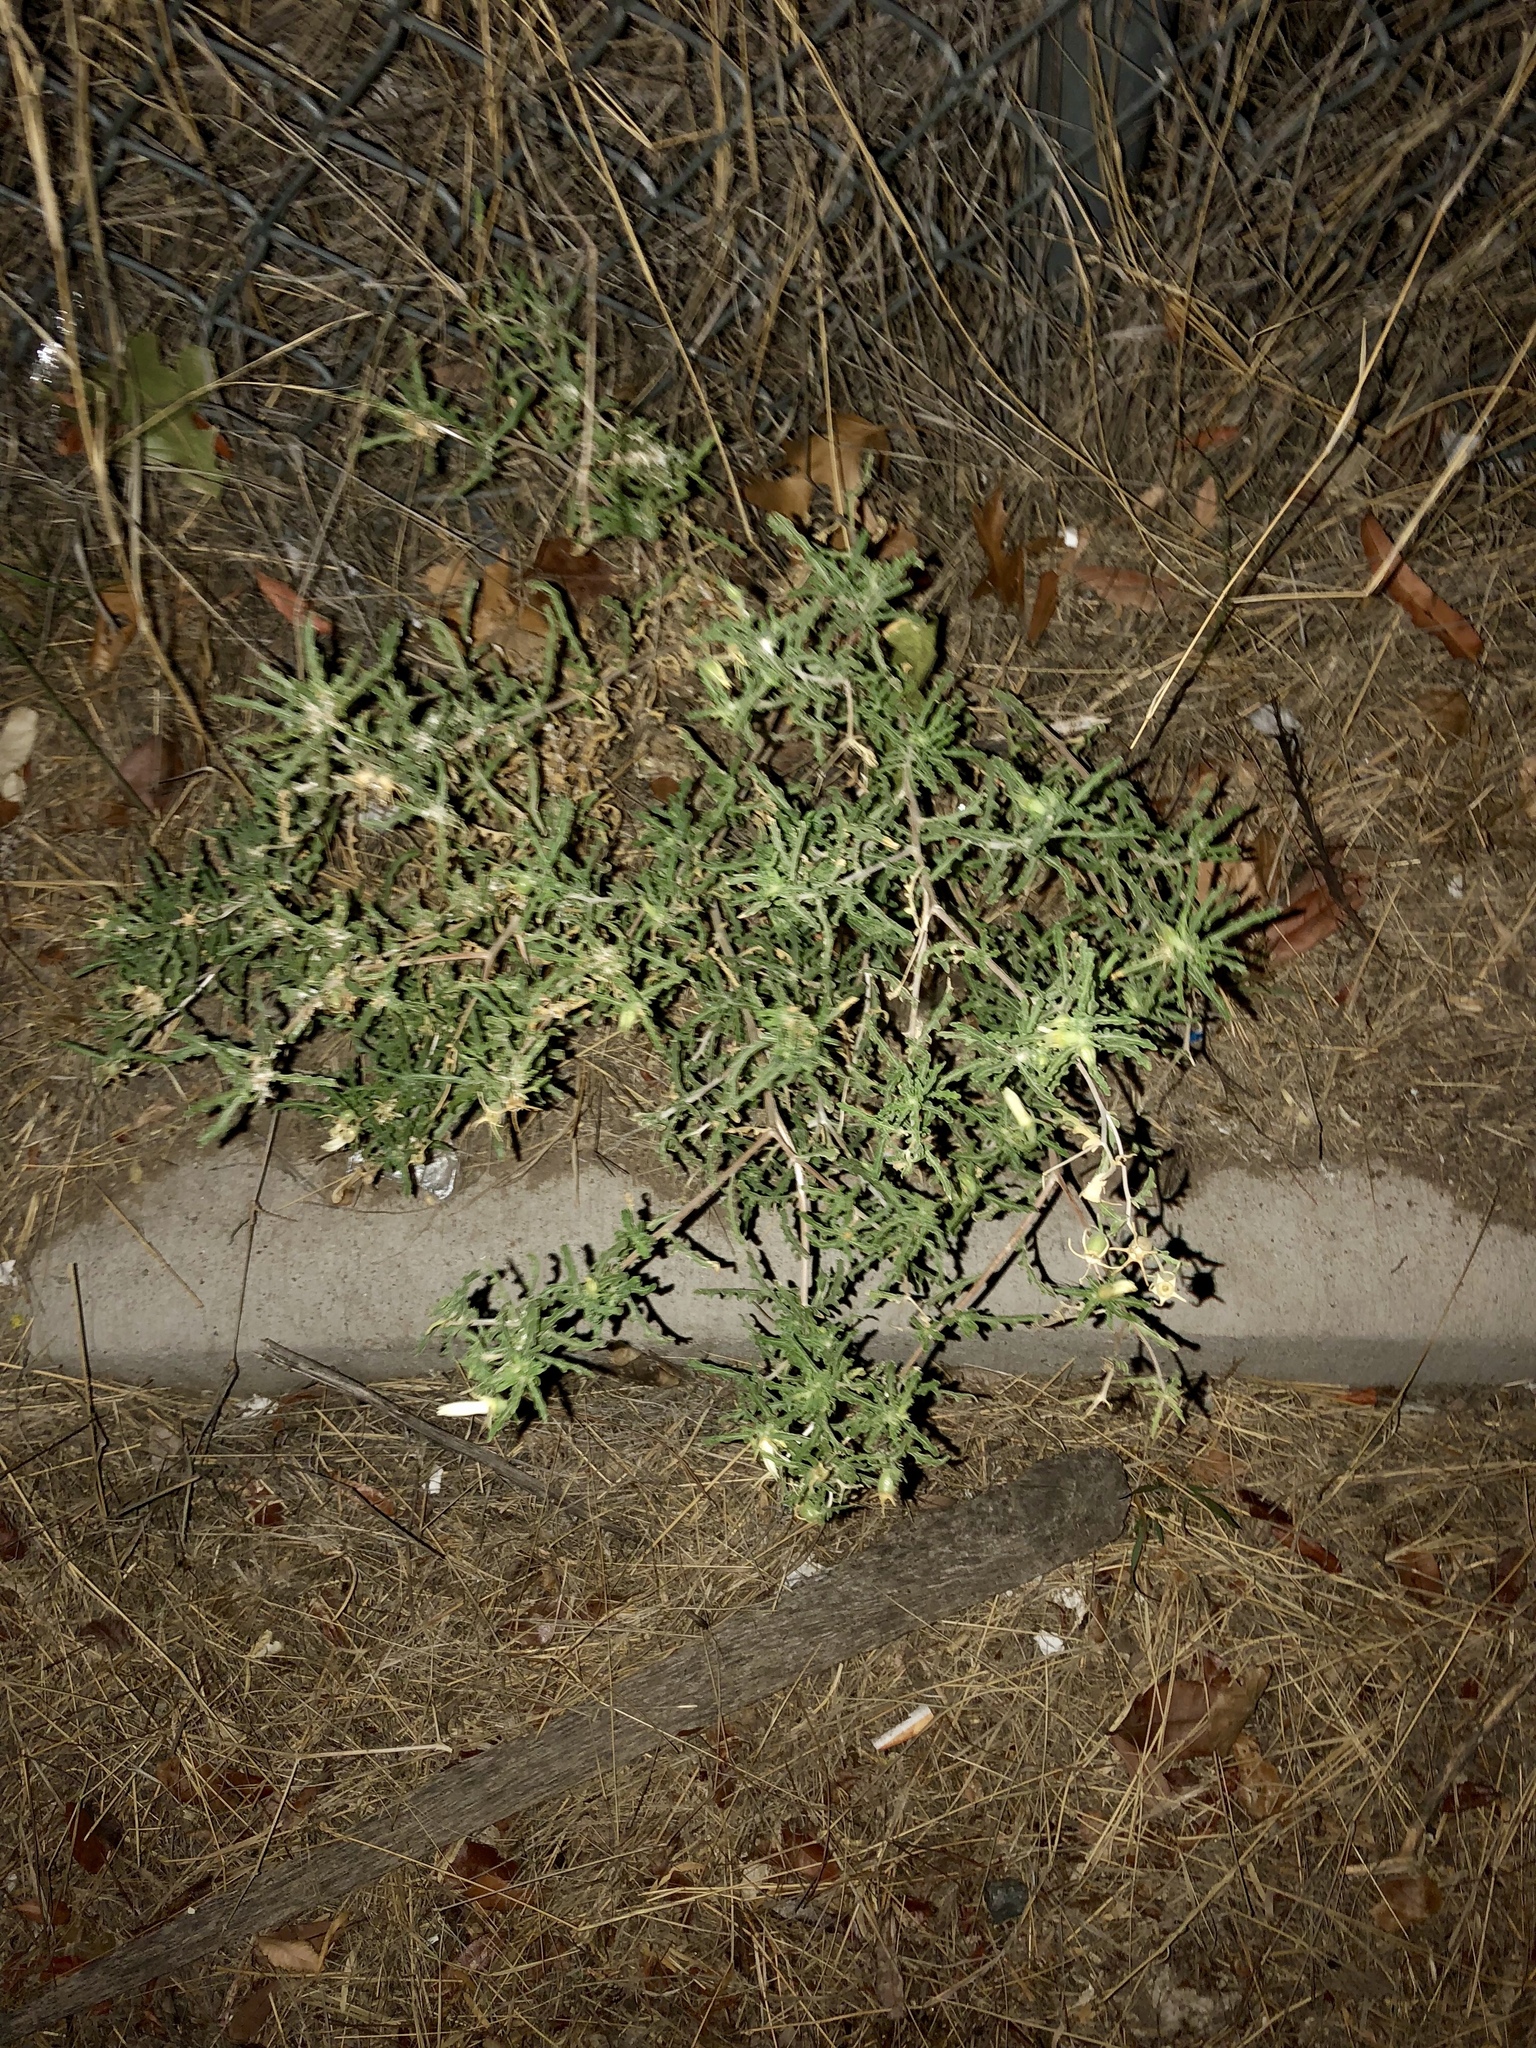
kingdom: Plantae
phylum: Tracheophyta
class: Magnoliopsida
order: Cornales
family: Loasaceae
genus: Mentzelia
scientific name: Mentzelia procera
